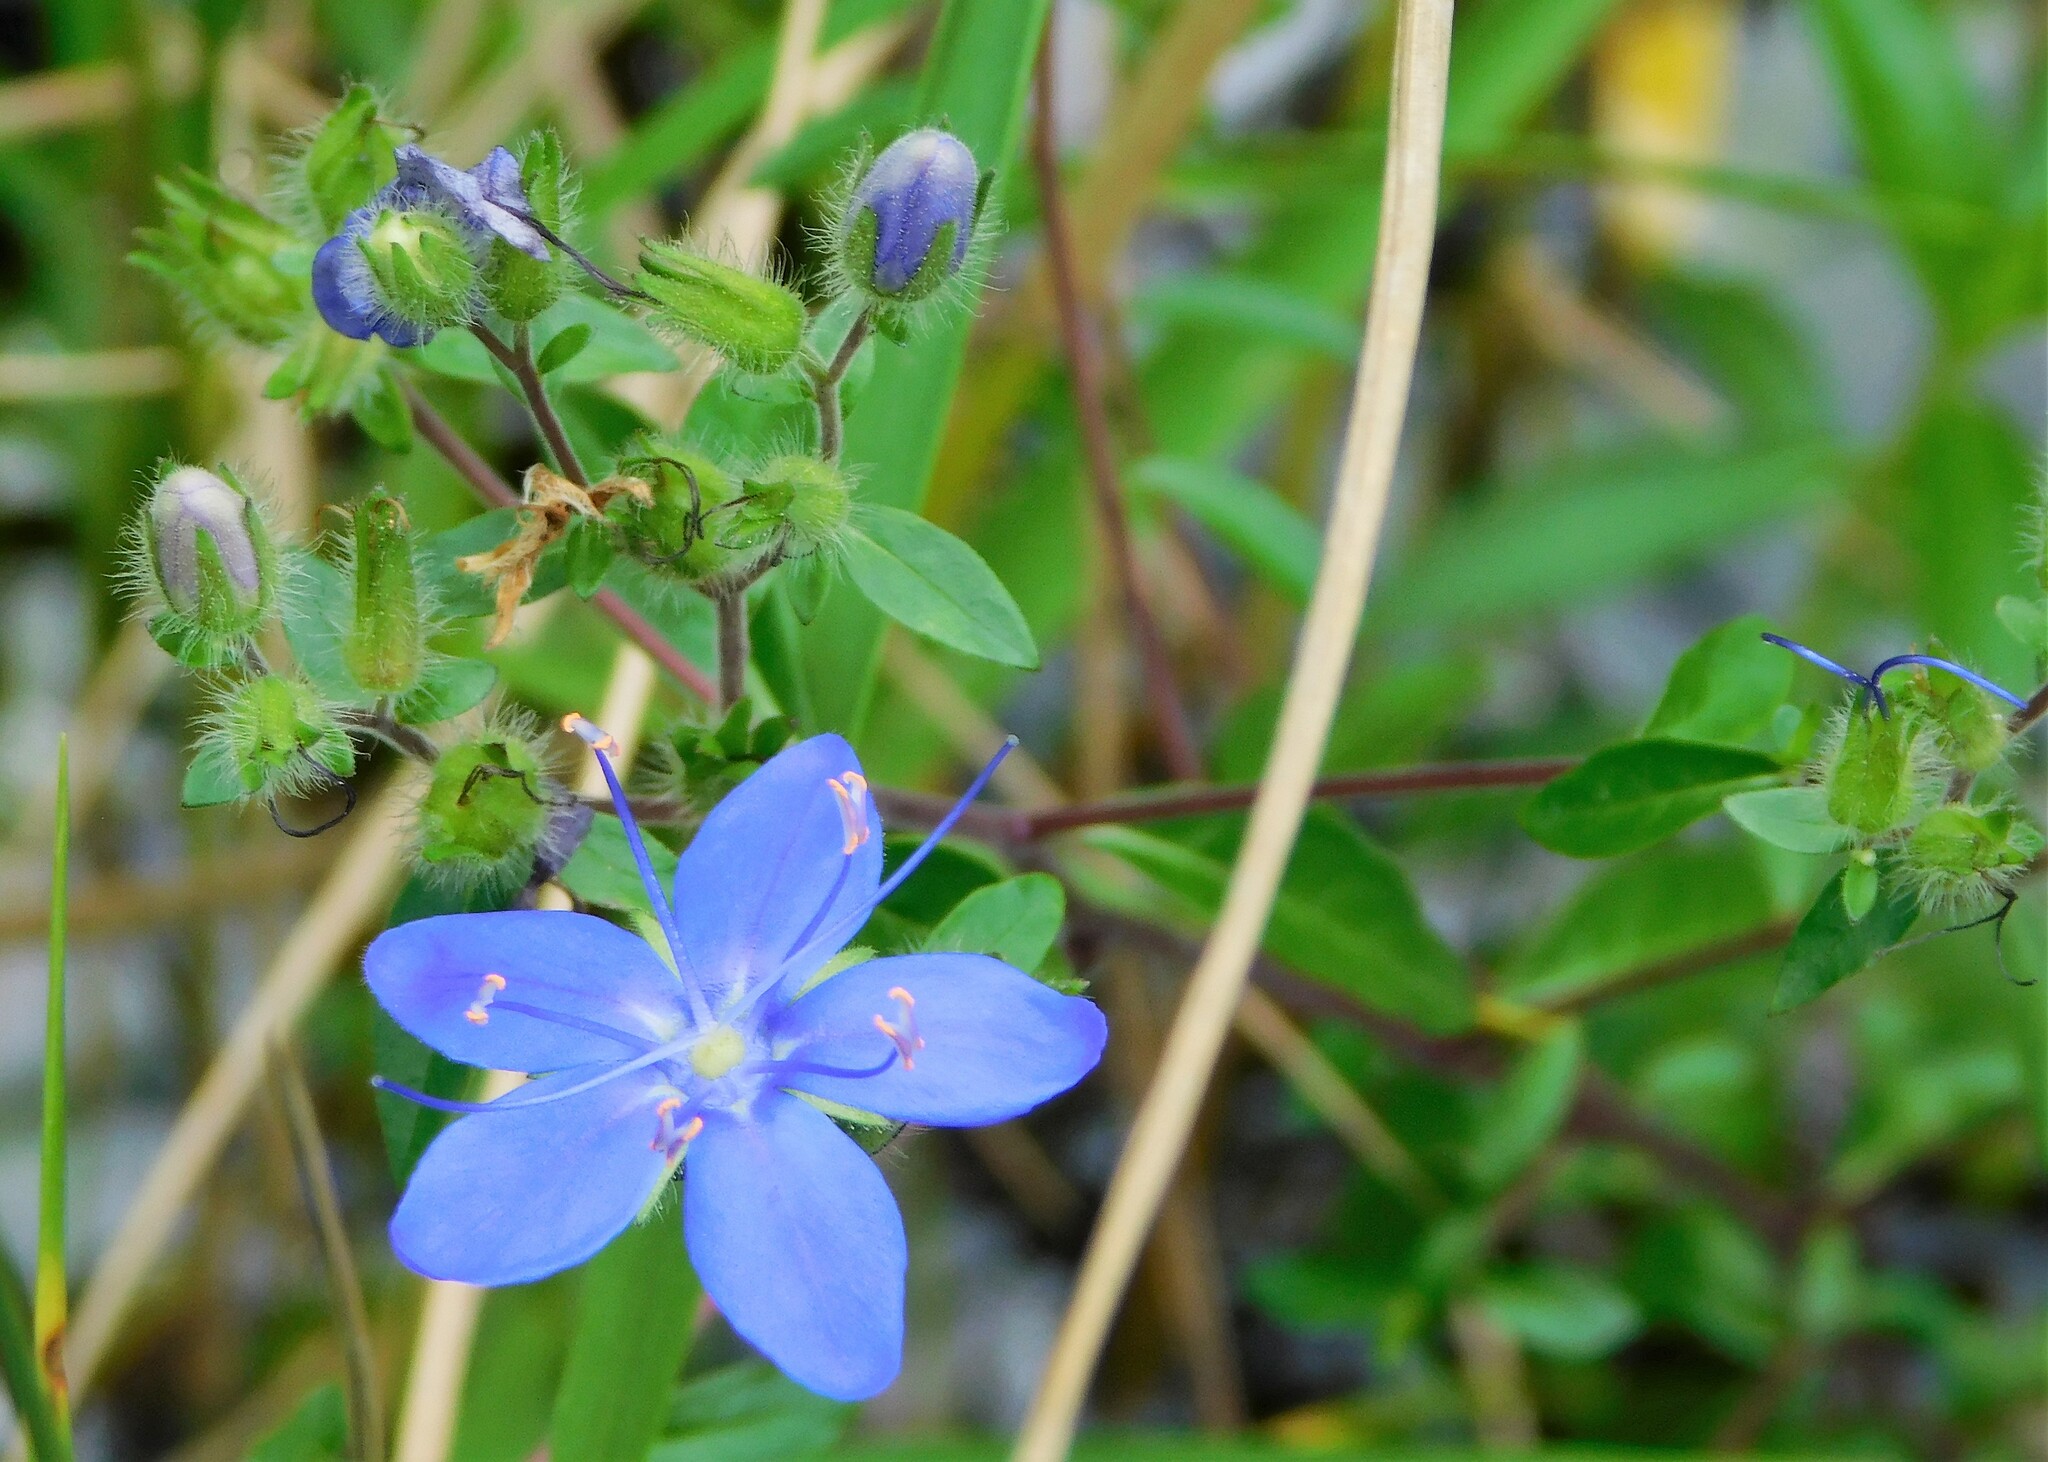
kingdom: Plantae
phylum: Tracheophyta
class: Magnoliopsida
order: Solanales
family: Hydroleaceae
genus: Hydrolea
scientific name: Hydrolea corymbosa
